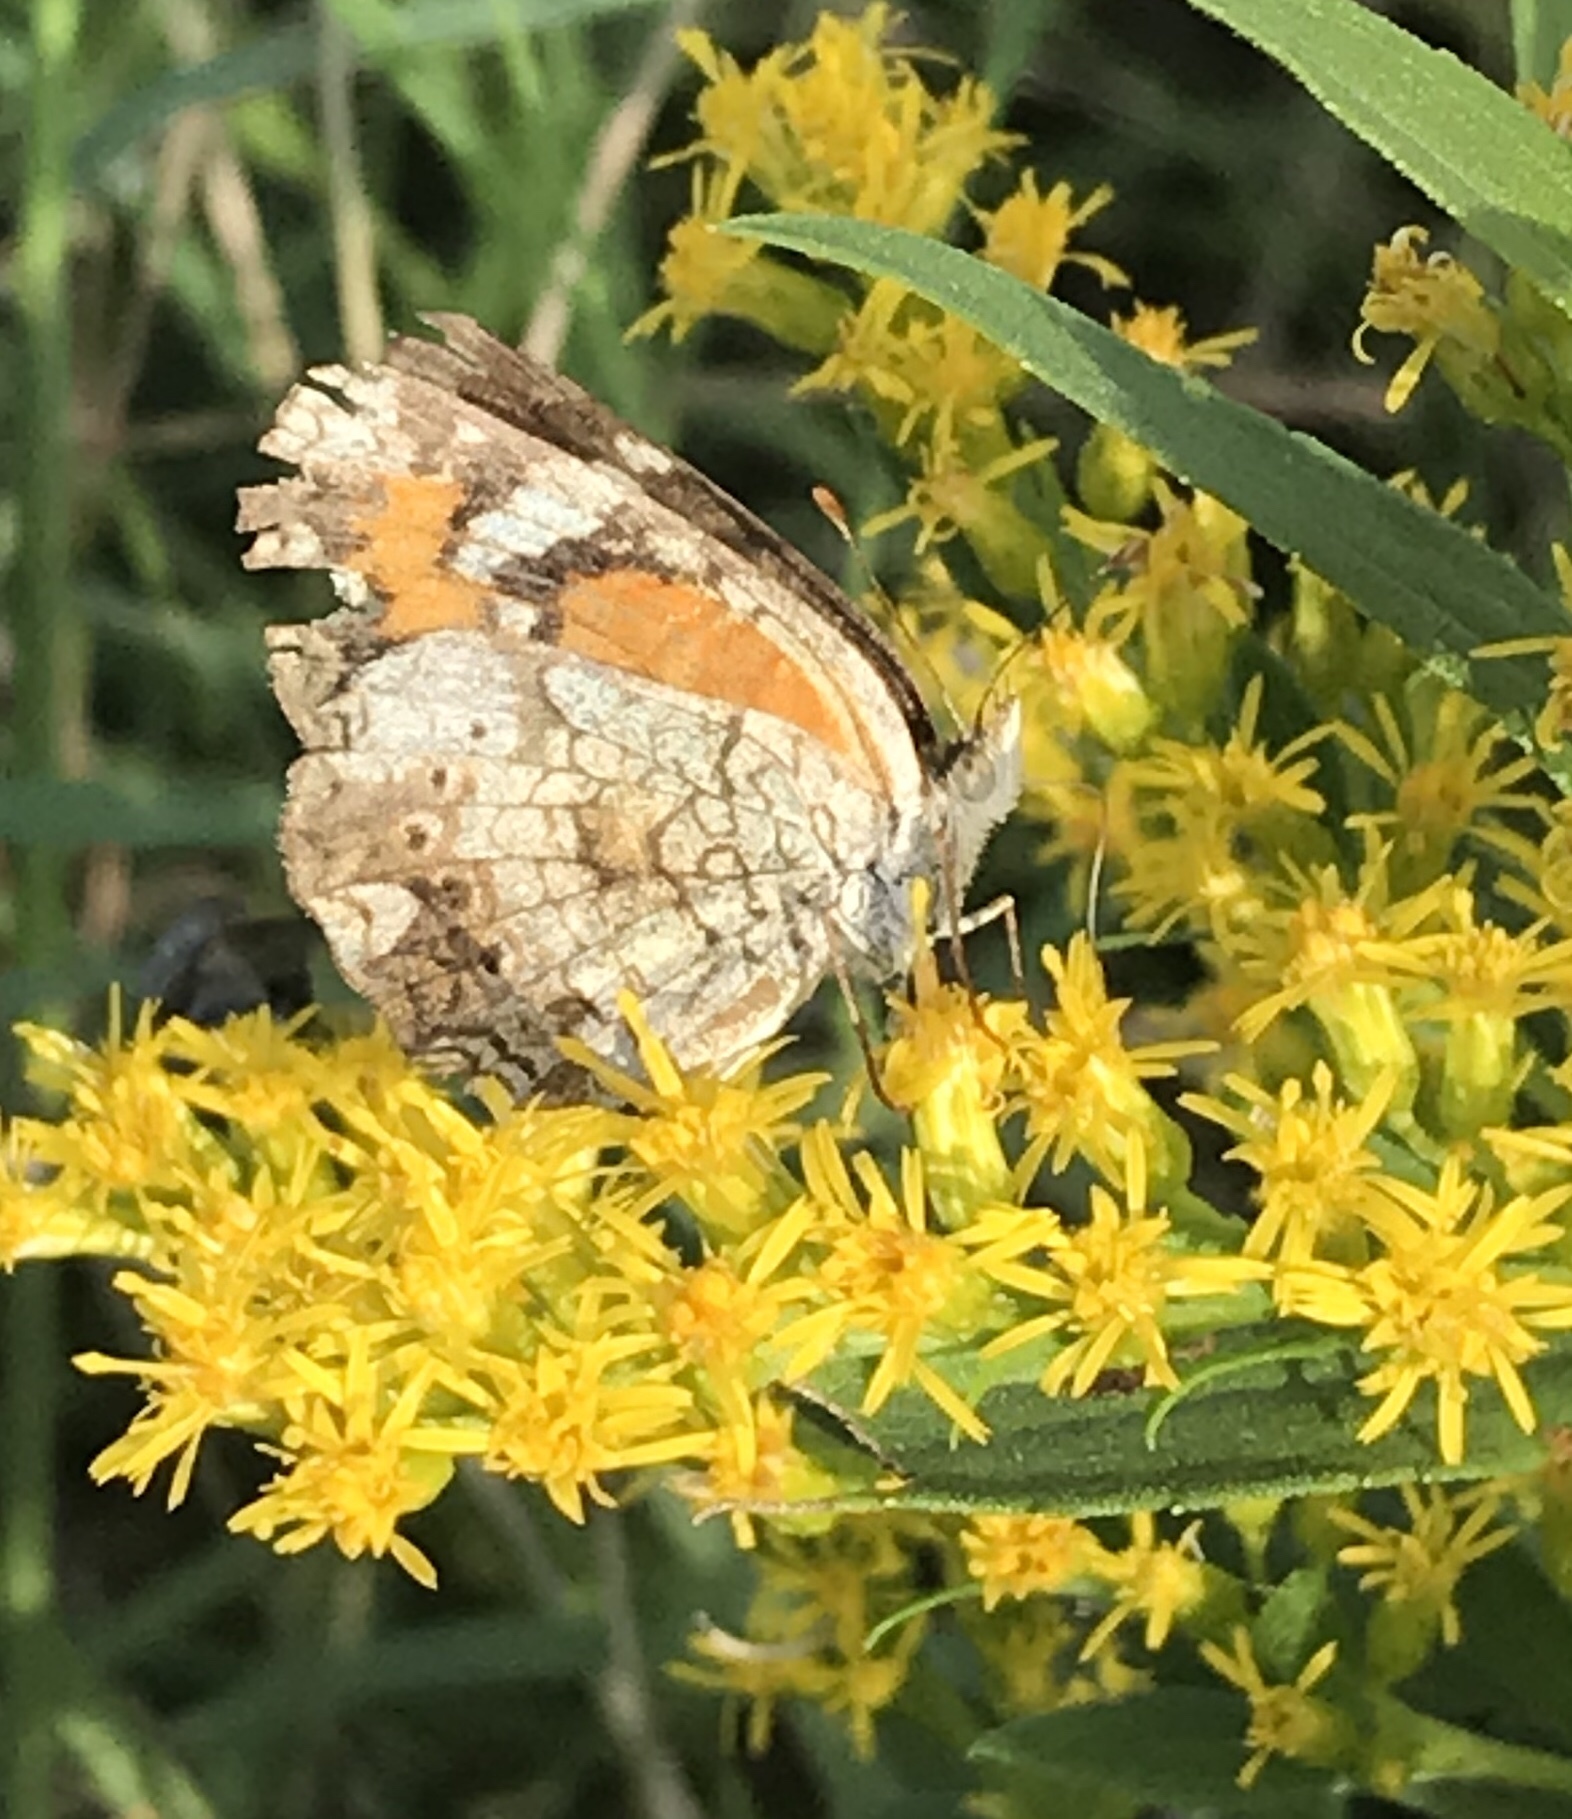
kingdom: Animalia
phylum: Arthropoda
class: Insecta
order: Lepidoptera
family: Nymphalidae
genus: Phyciodes
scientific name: Phyciodes phaon
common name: Phaon crescent
